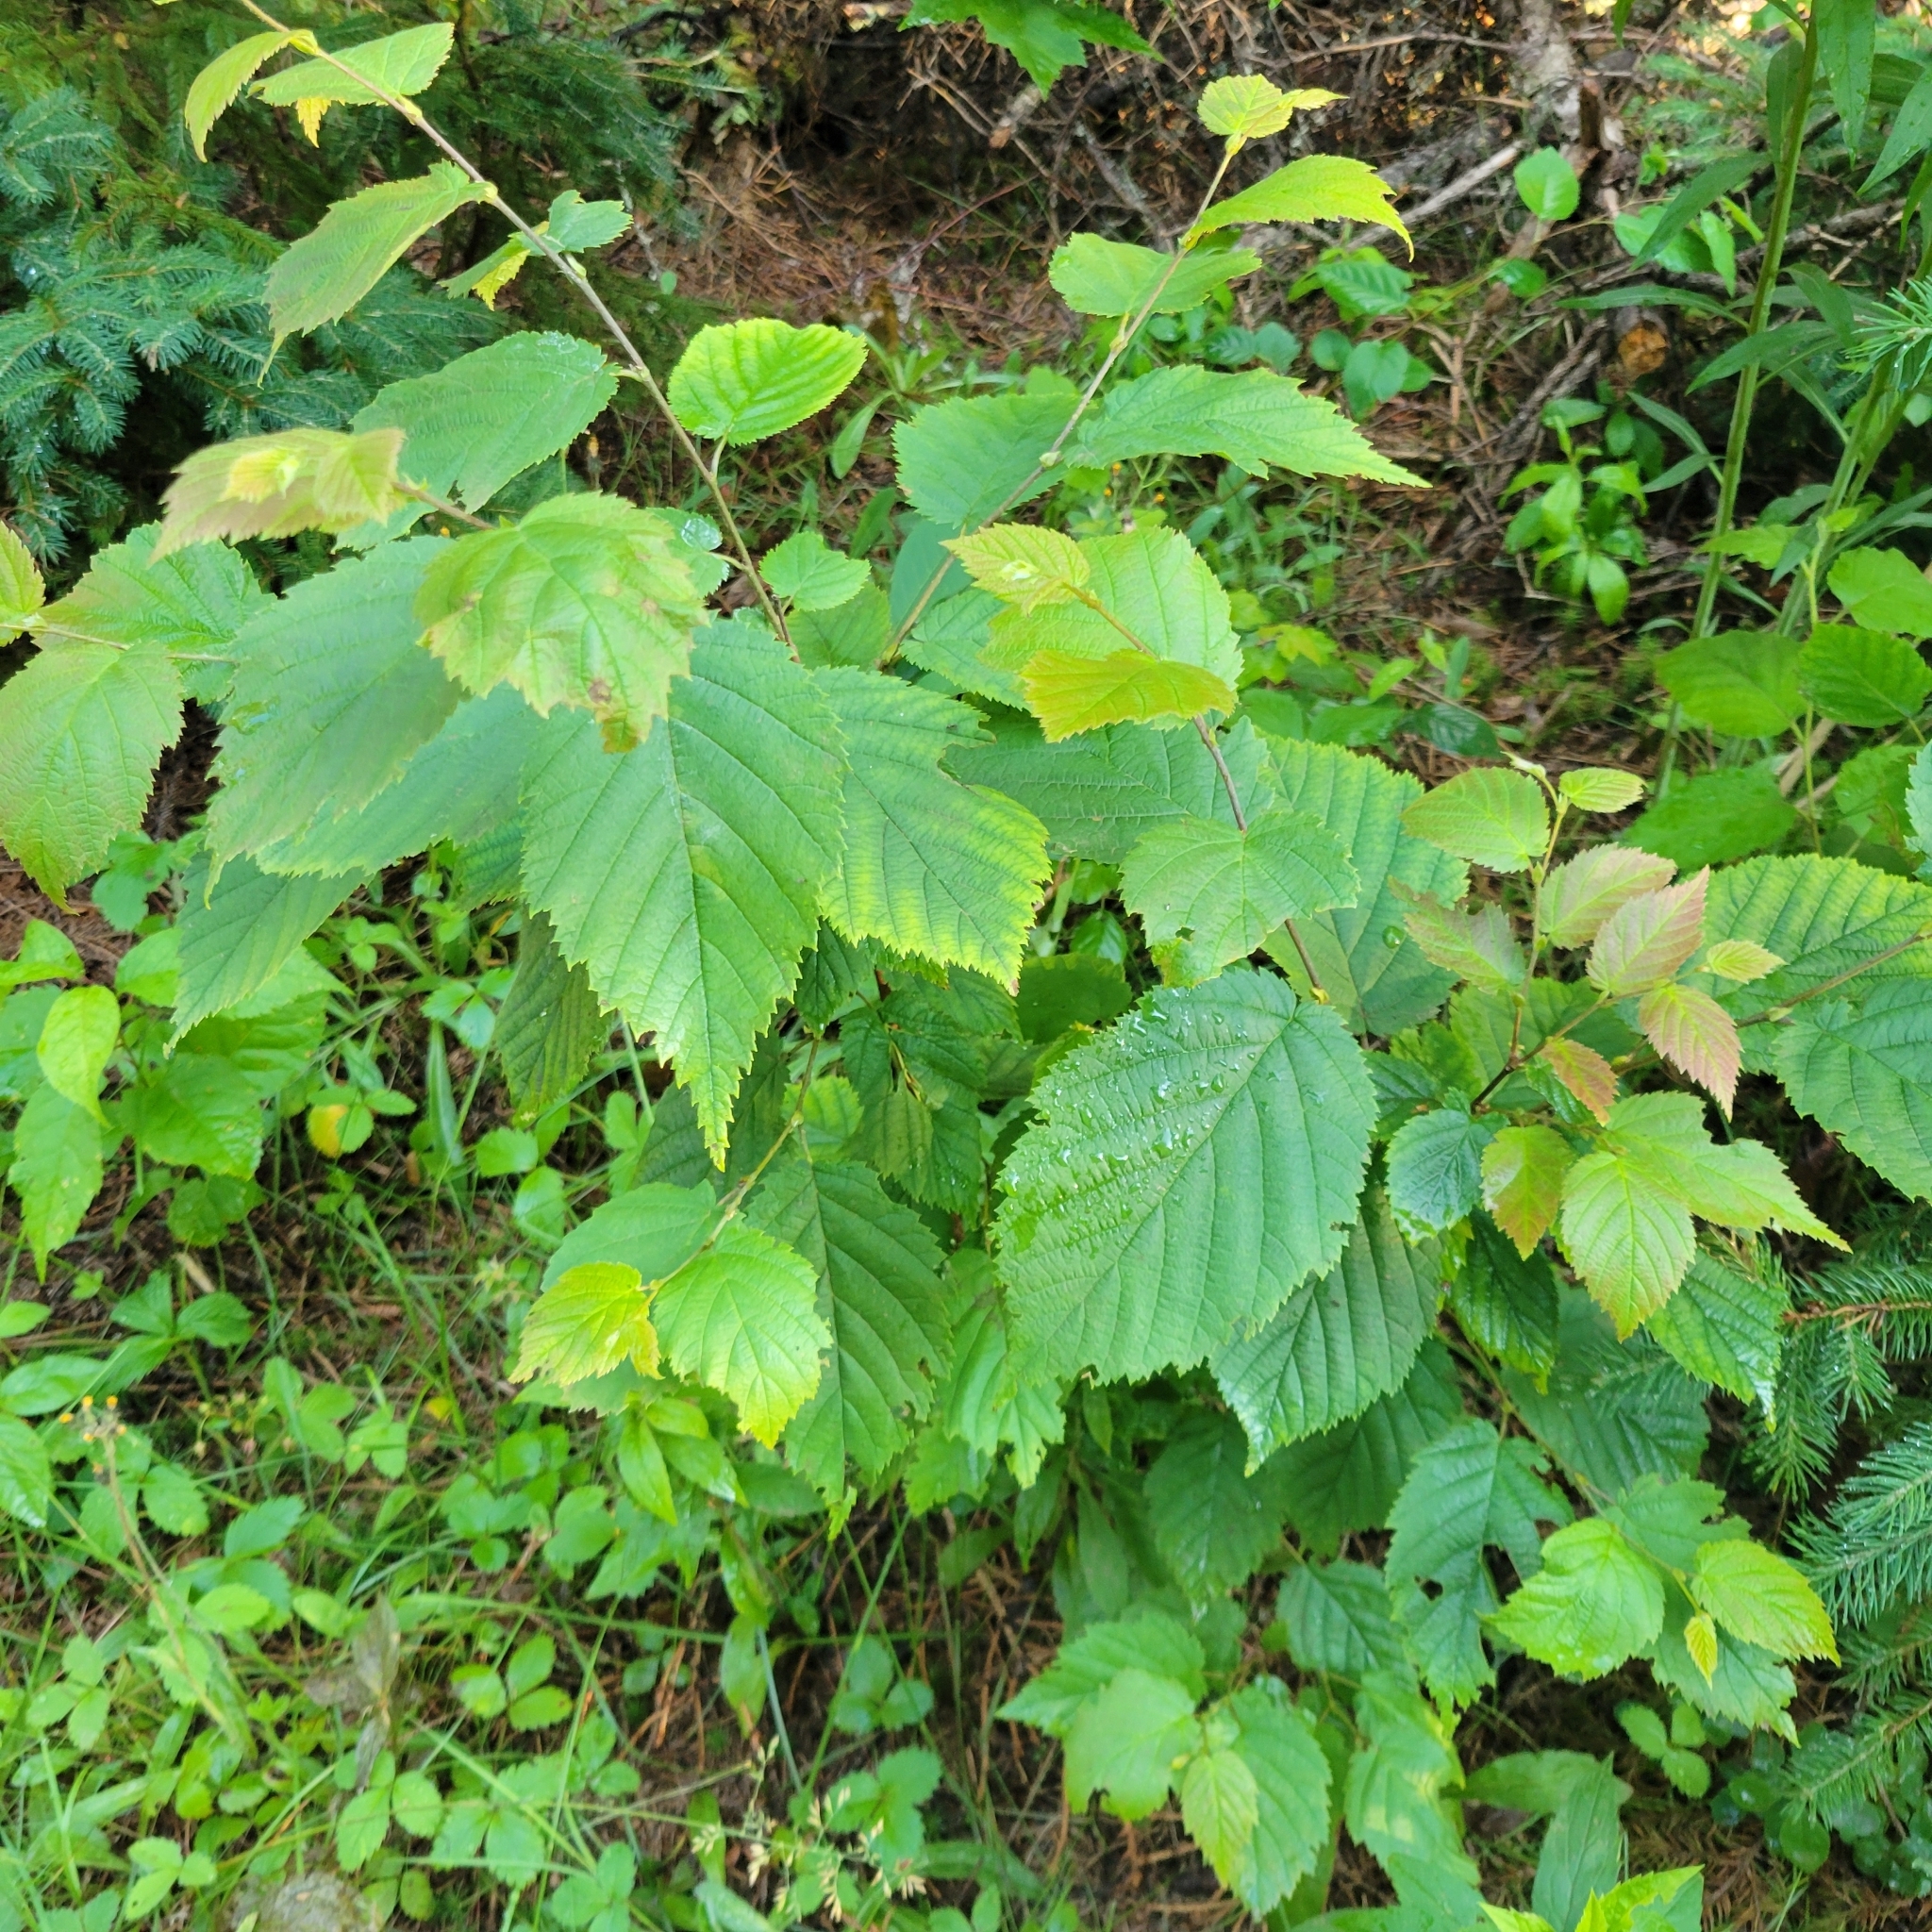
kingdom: Plantae
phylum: Tracheophyta
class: Magnoliopsida
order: Fagales
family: Betulaceae
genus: Corylus
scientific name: Corylus cornuta
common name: Beaked hazel
